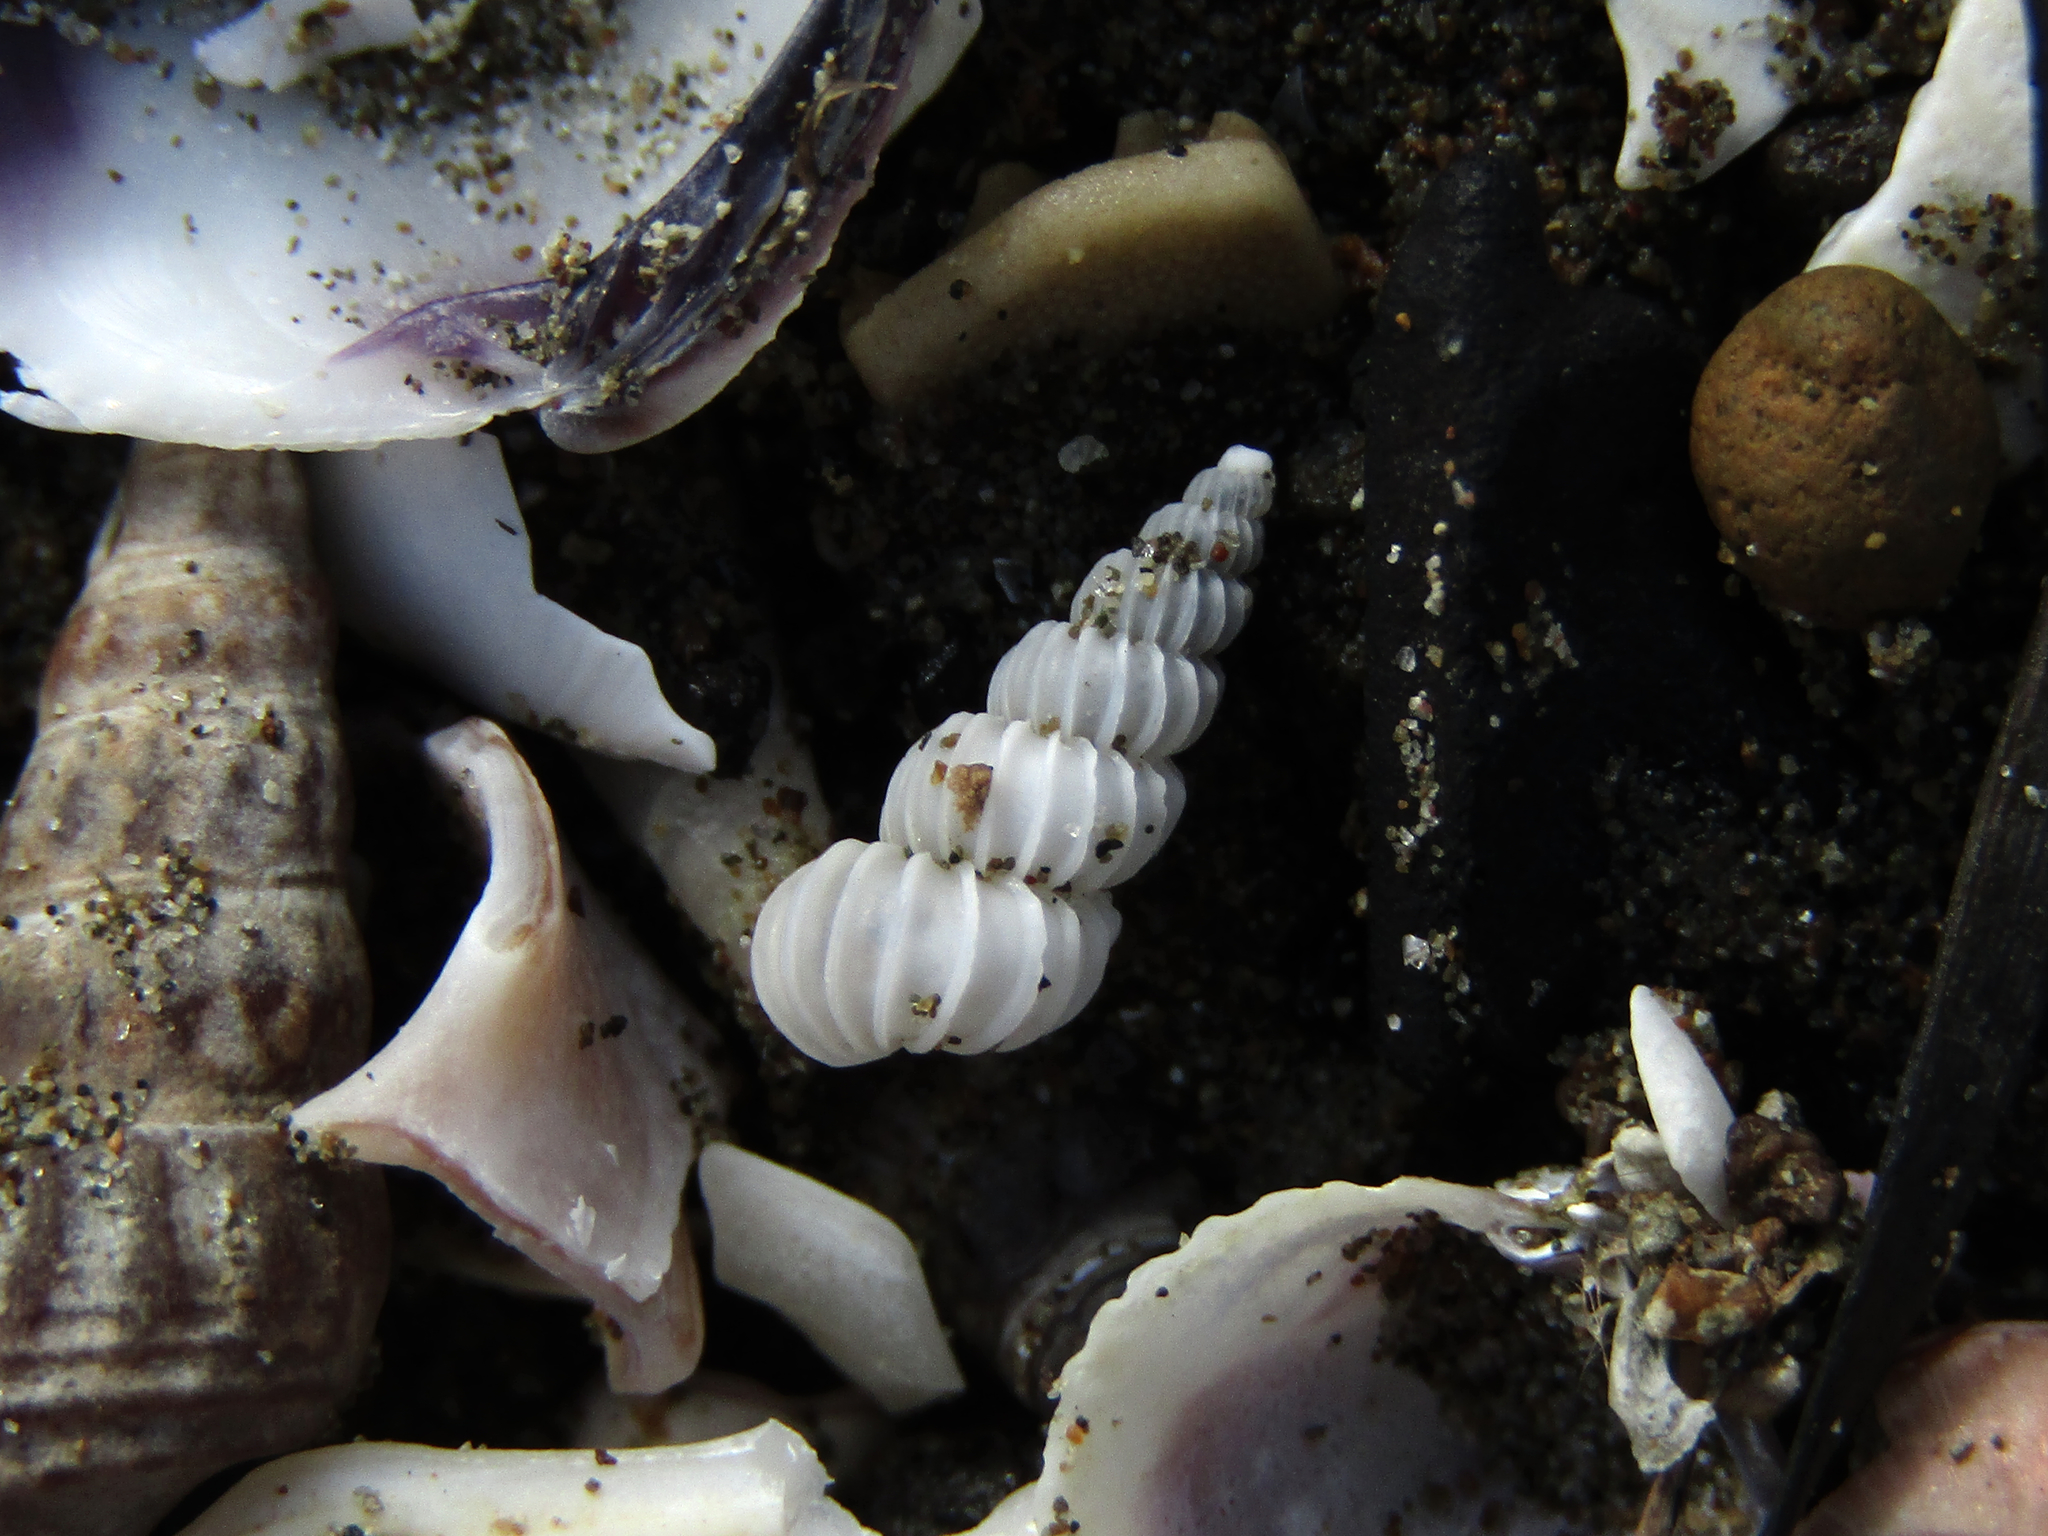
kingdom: Animalia
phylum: Mollusca
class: Gastropoda
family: Epitoniidae
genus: Epitonium
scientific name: Epitonium jukesianum
